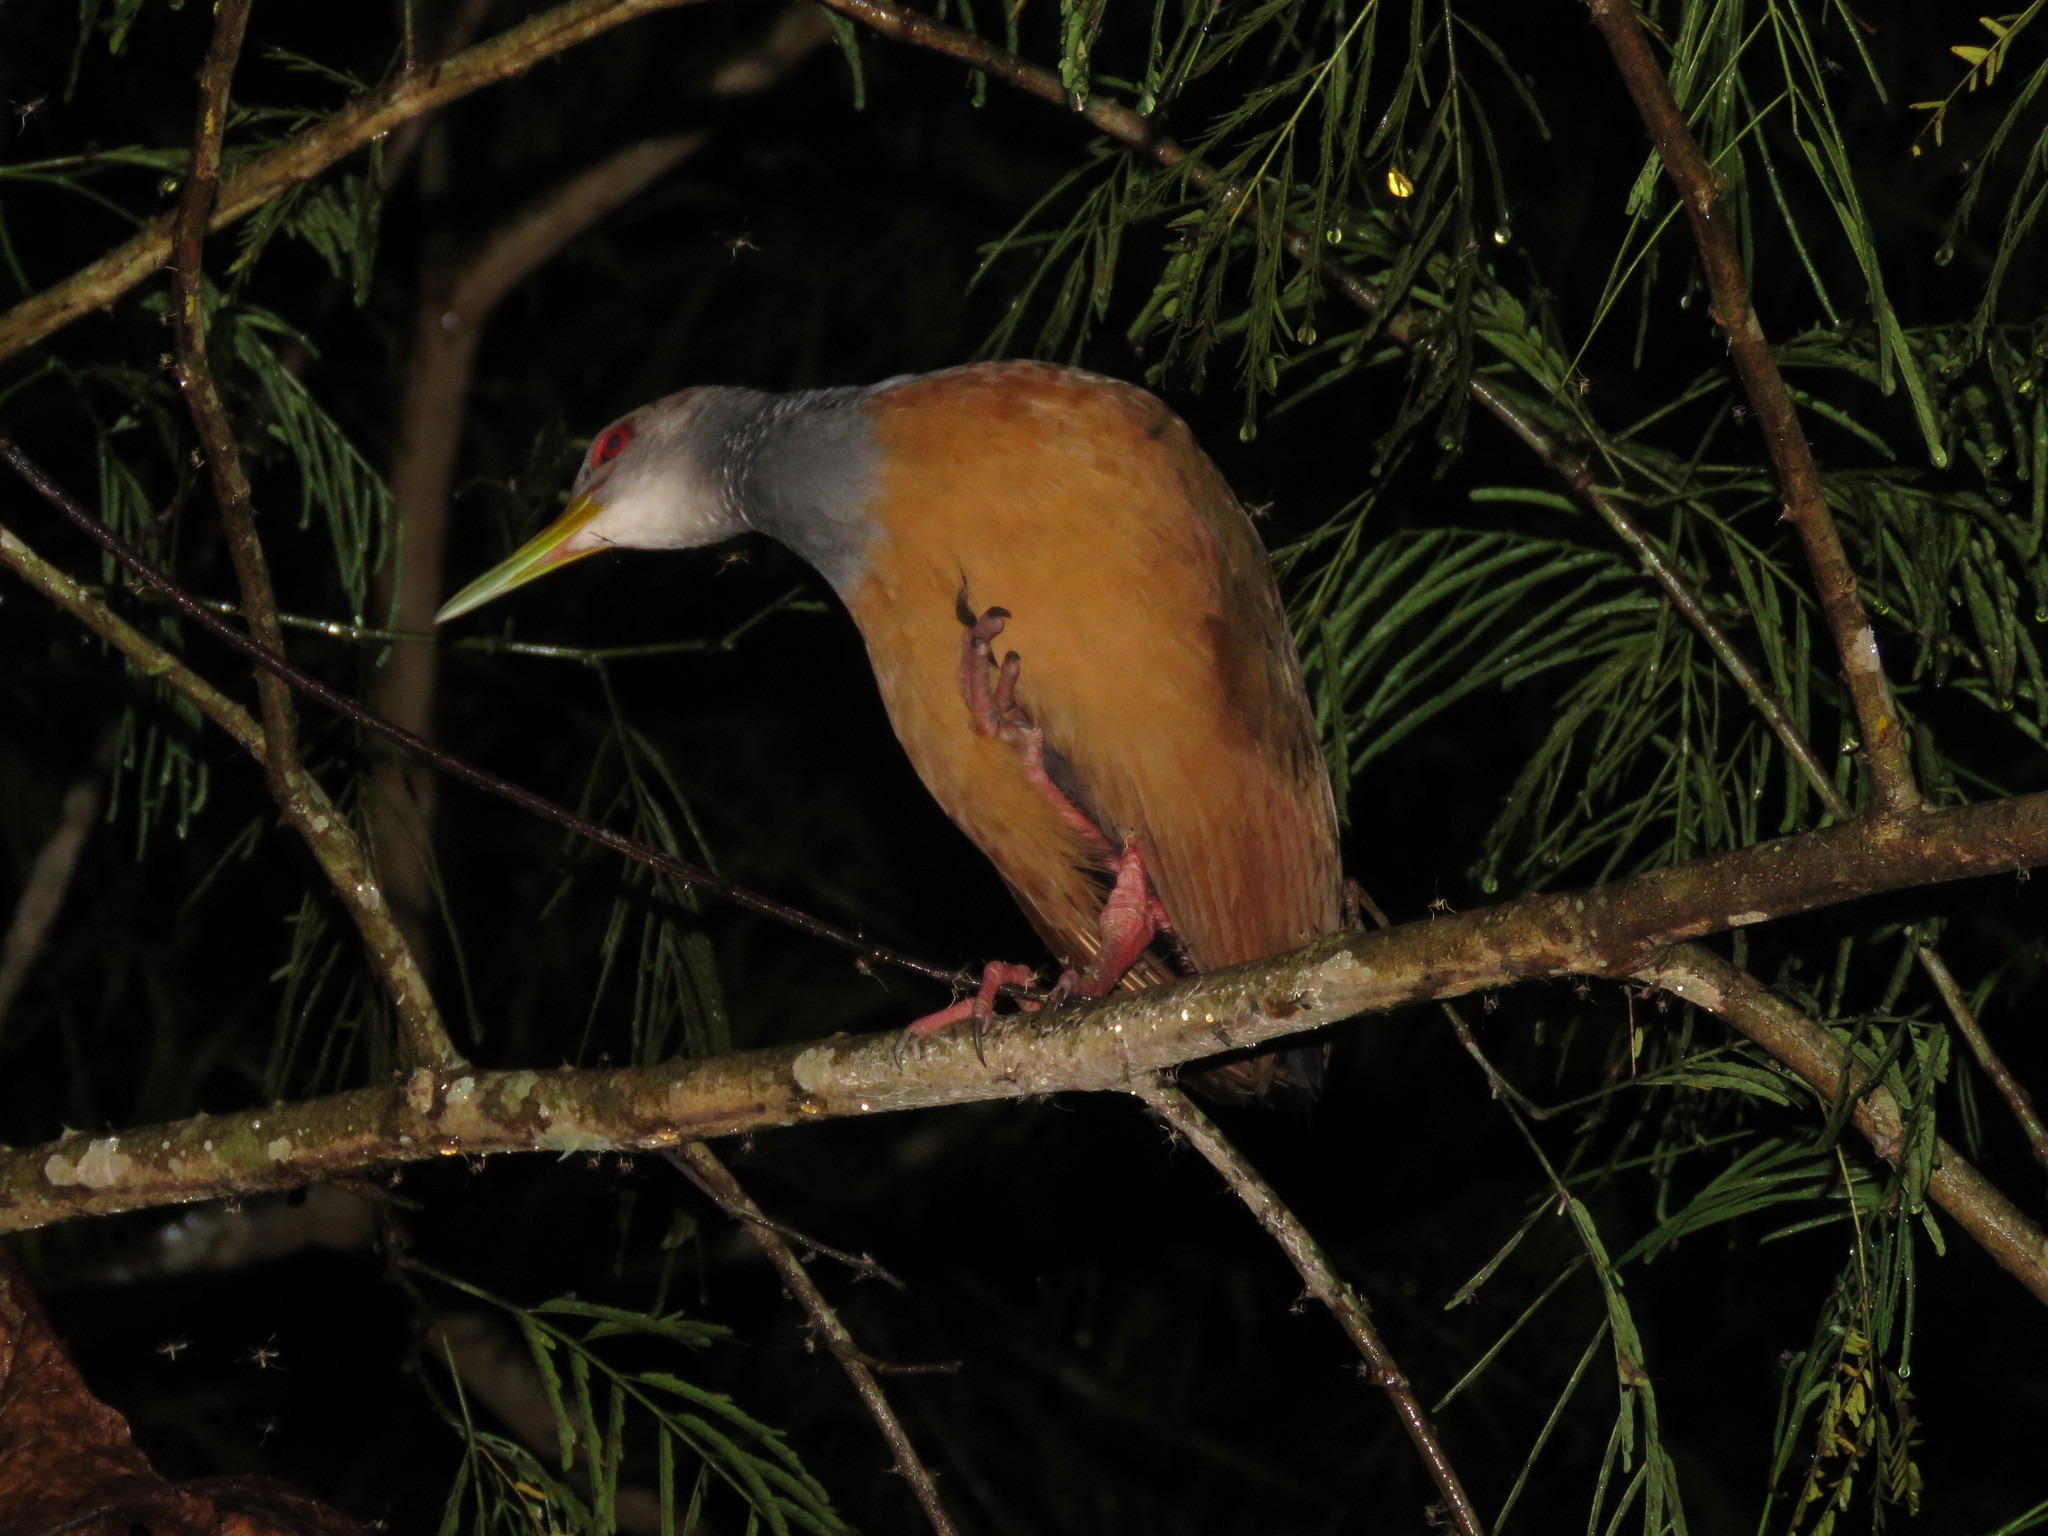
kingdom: Animalia
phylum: Chordata
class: Aves
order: Gruiformes
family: Rallidae
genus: Aramides
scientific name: Aramides cajanea
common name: Gray-necked wood-rail
